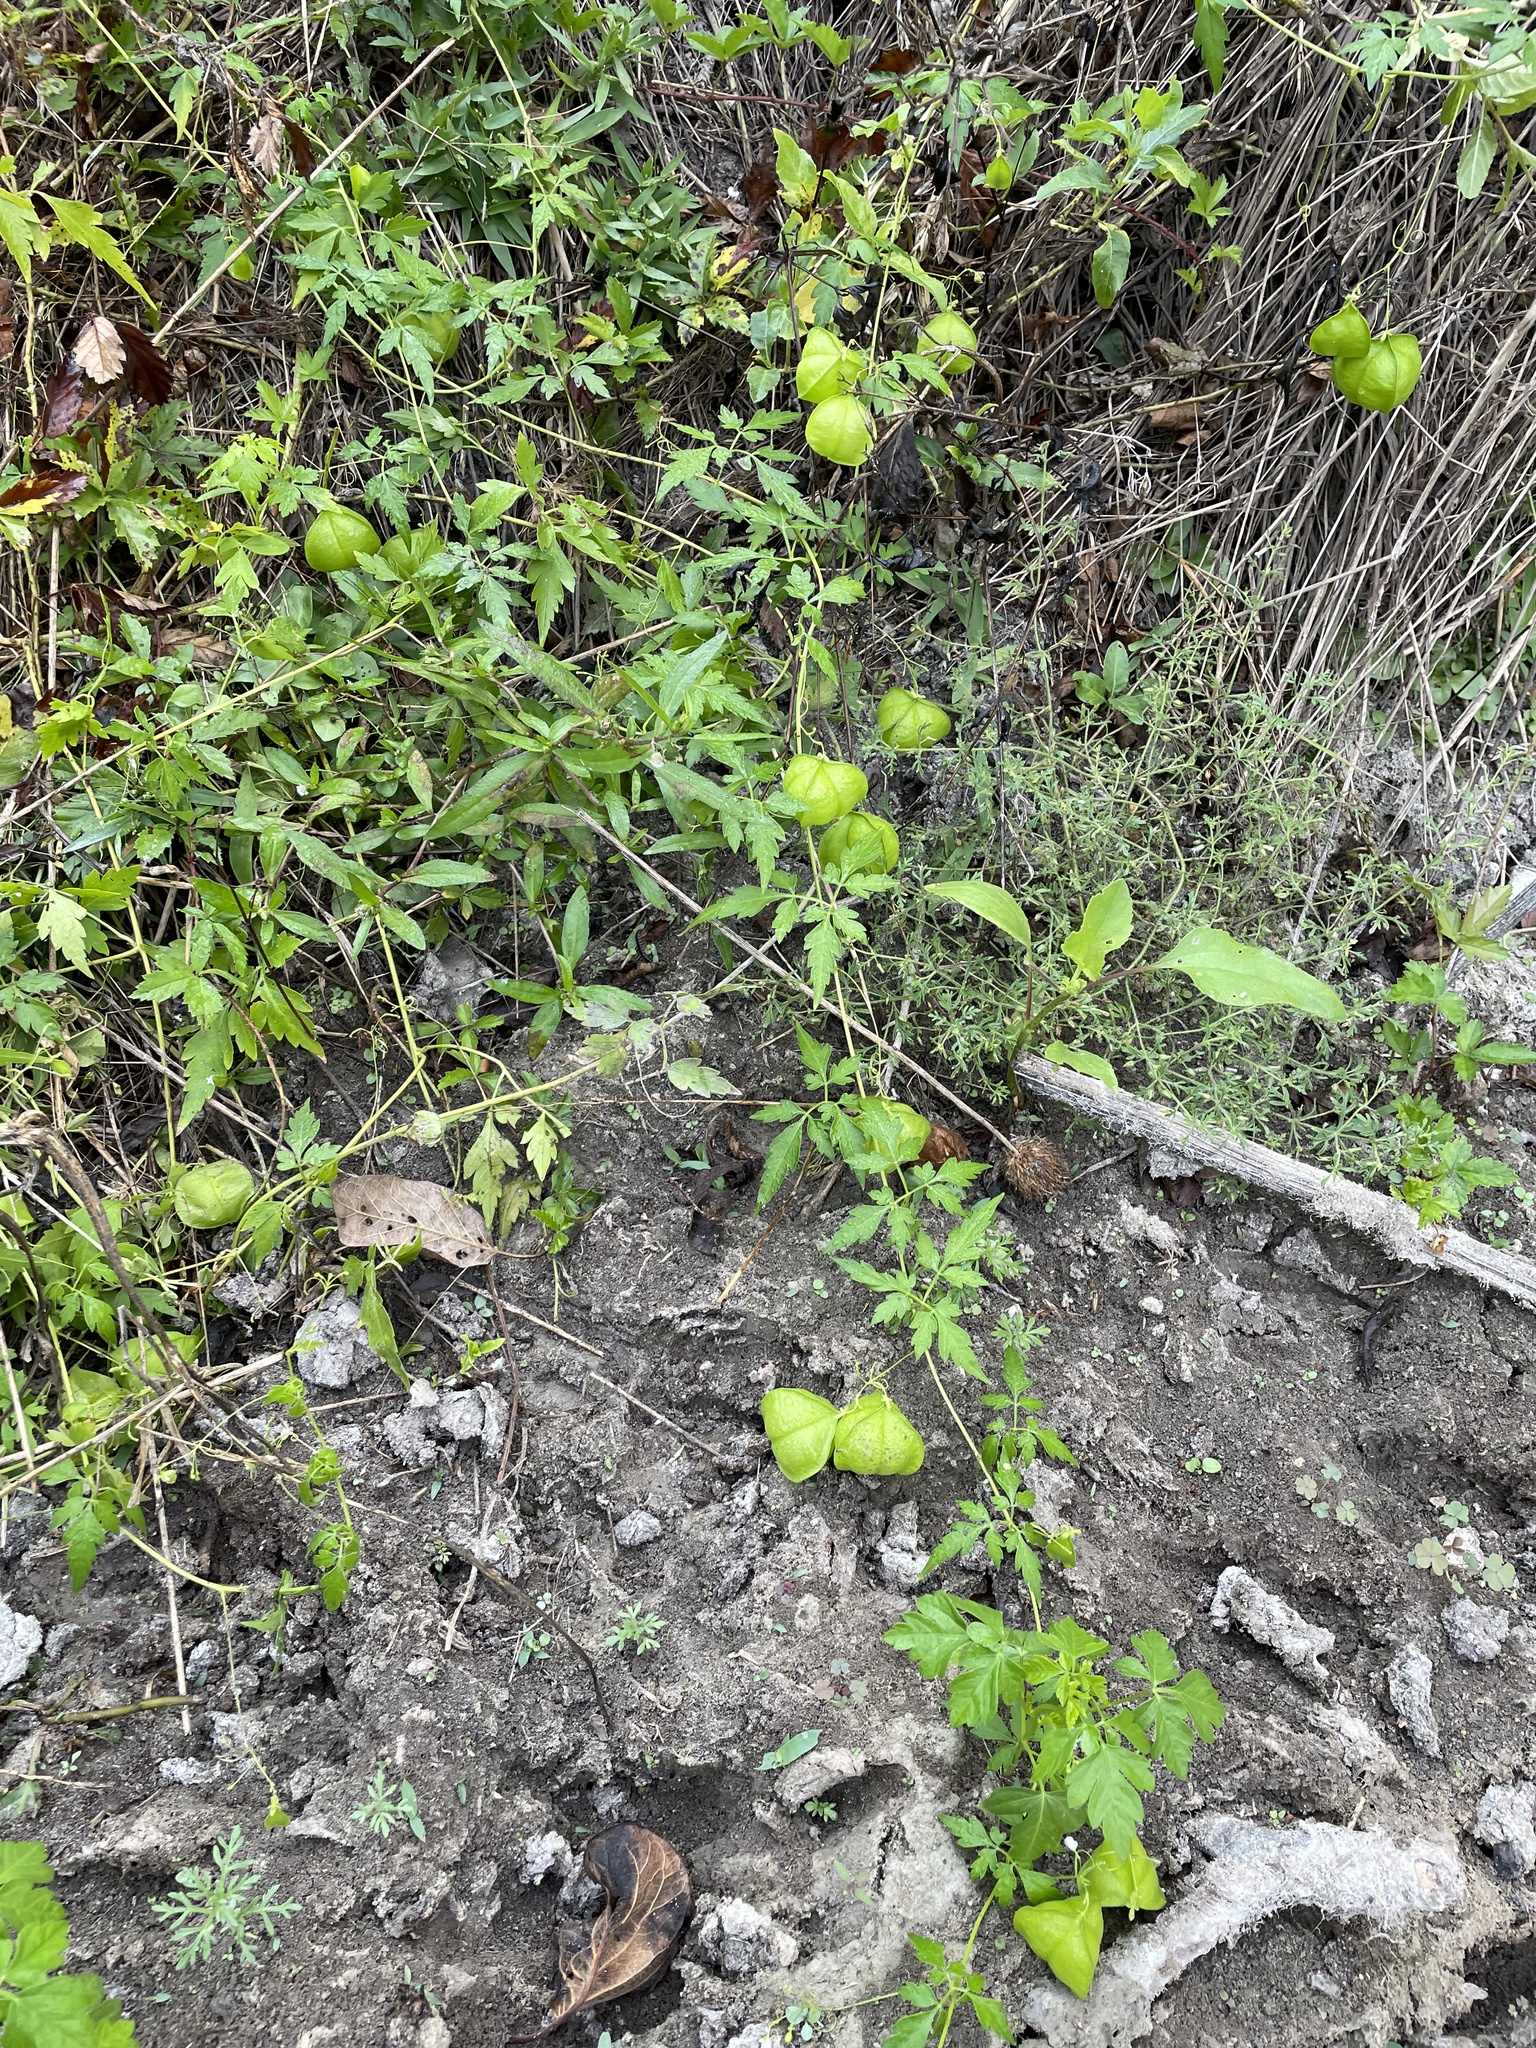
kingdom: Plantae
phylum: Tracheophyta
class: Magnoliopsida
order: Sapindales
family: Sapindaceae
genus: Cardiospermum
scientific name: Cardiospermum halicacabum
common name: Balloon vine
